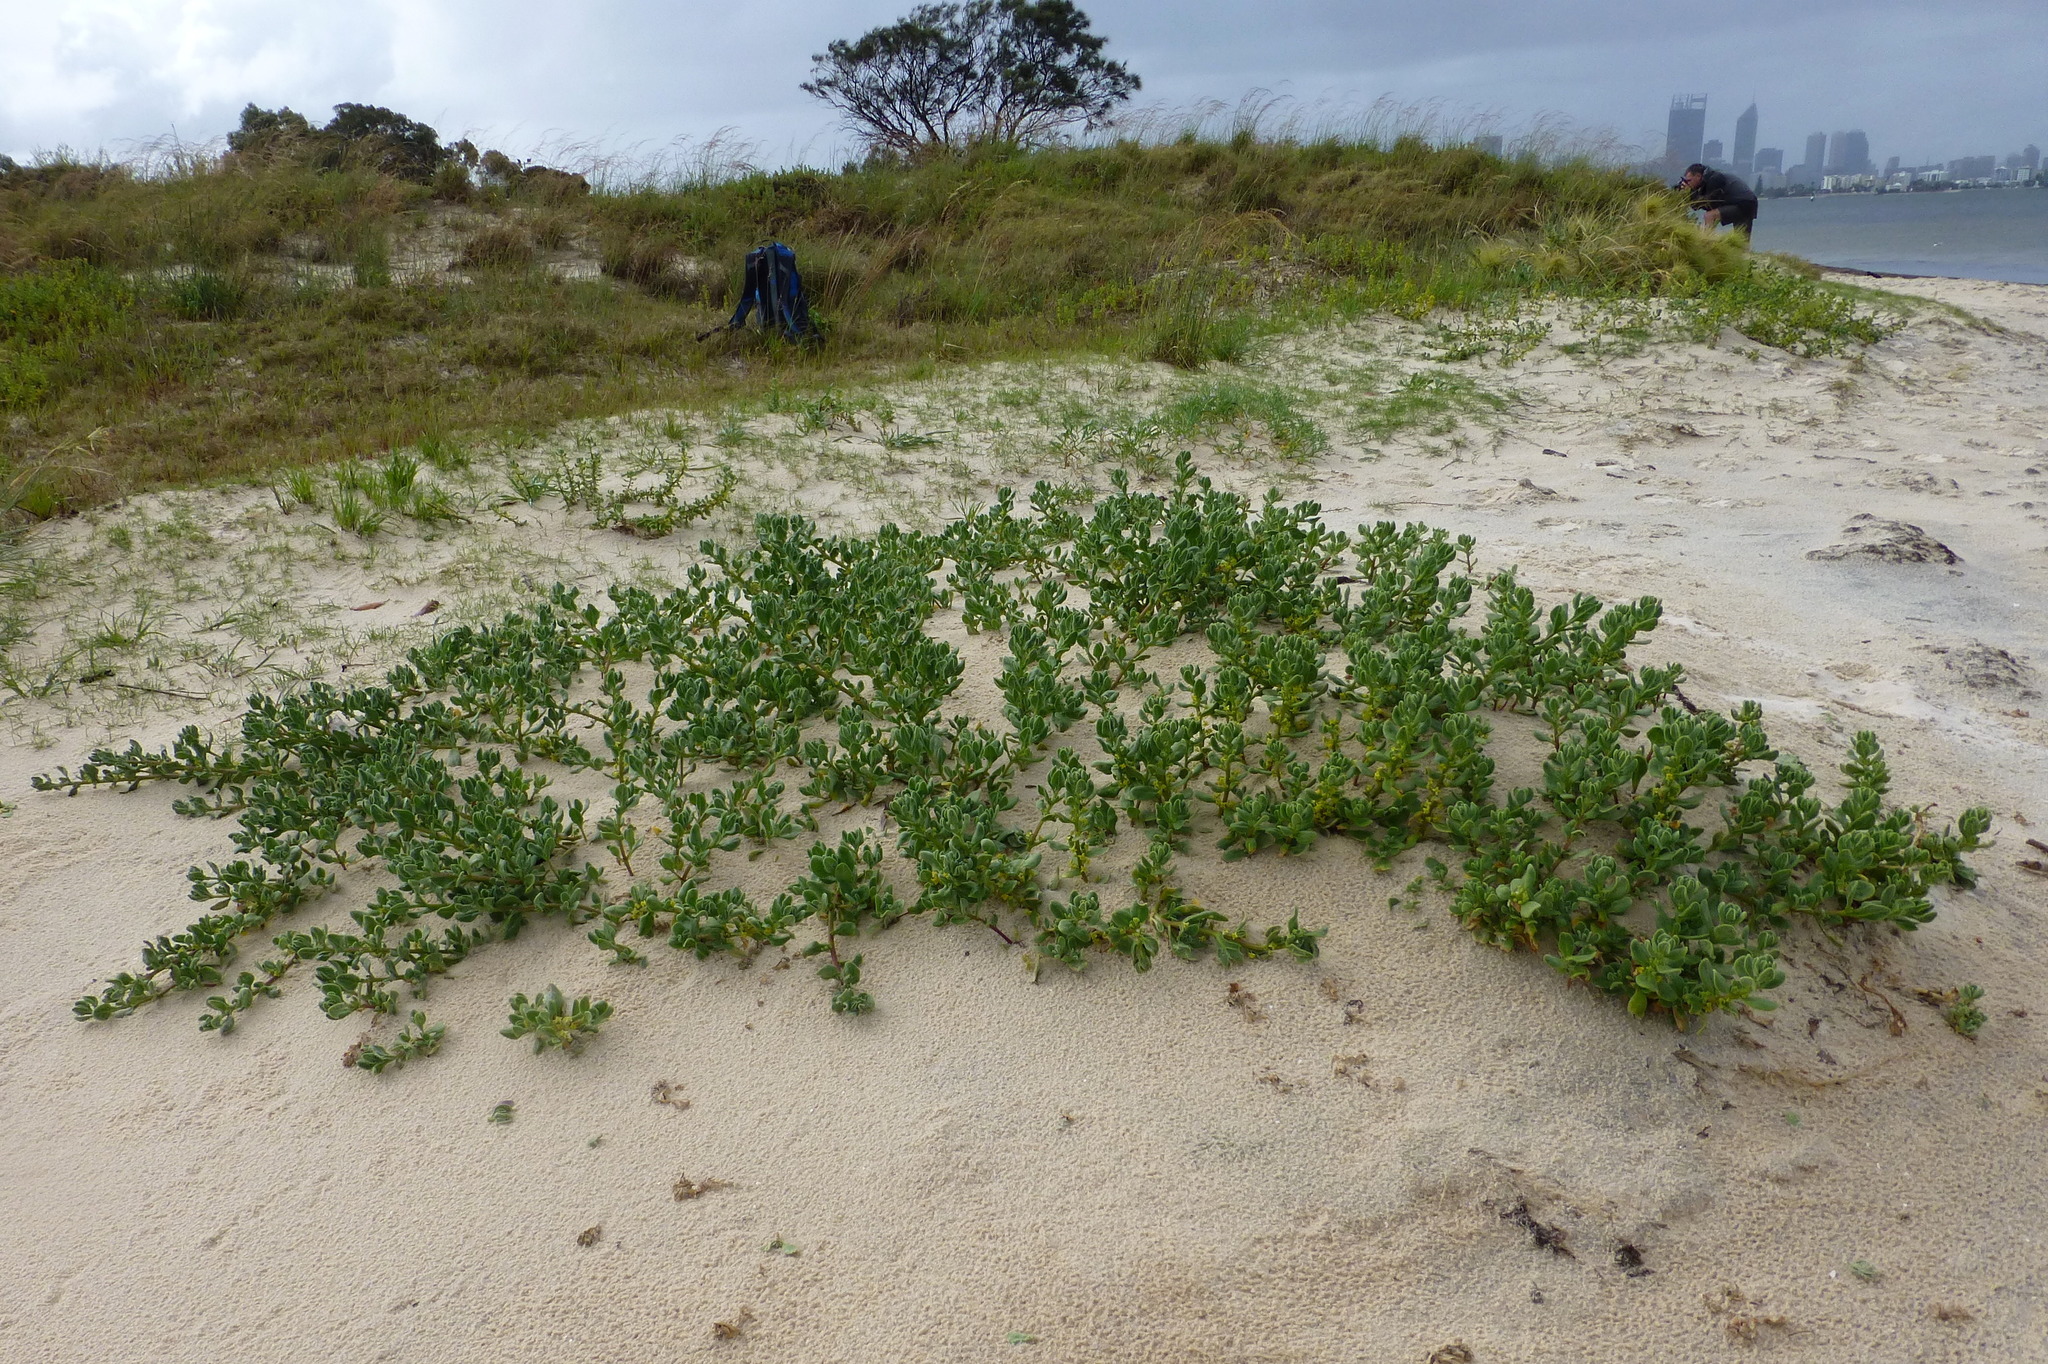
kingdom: Plantae
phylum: Tracheophyta
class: Magnoliopsida
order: Caryophyllales
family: Aizoaceae
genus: Tetragonia
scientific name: Tetragonia decumbens
